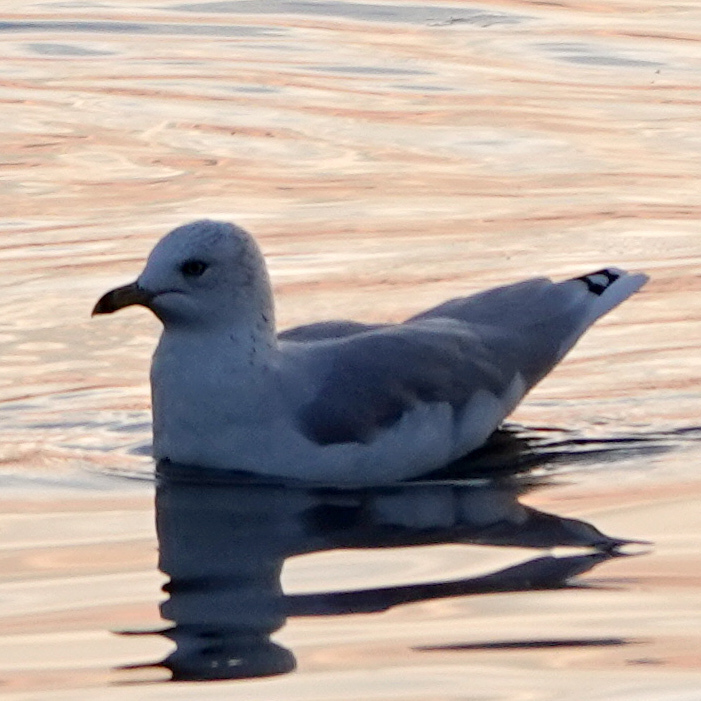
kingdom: Animalia
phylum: Chordata
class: Aves
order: Charadriiformes
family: Laridae
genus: Larus
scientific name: Larus delawarensis
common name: Ring-billed gull
